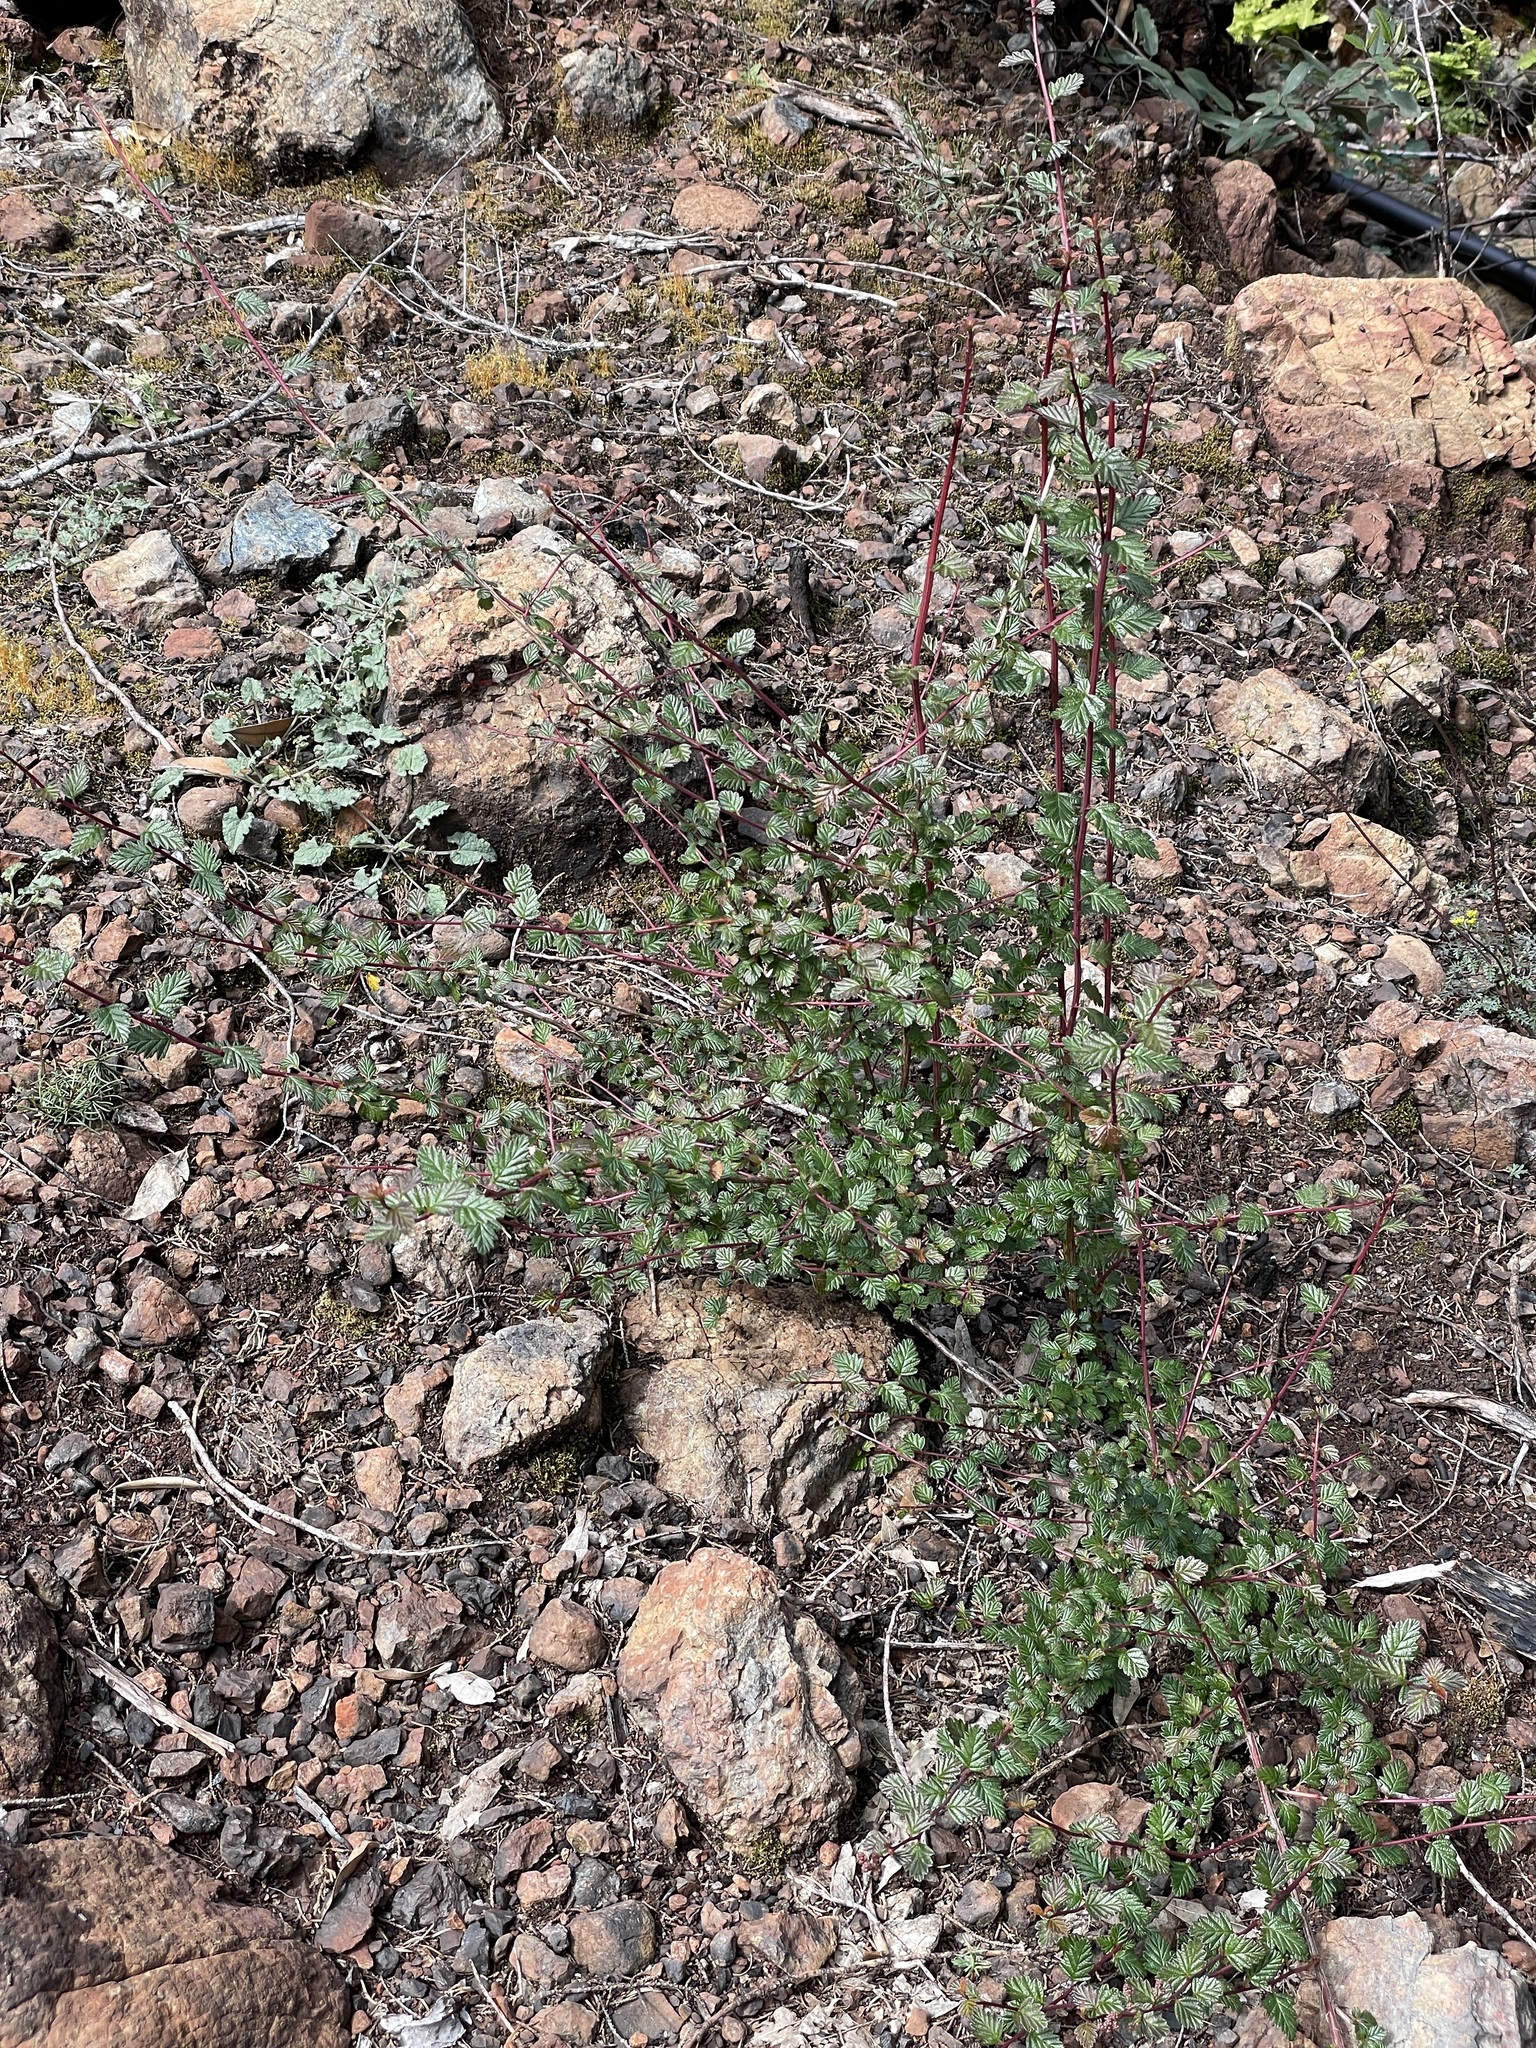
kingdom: Plantae
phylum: Tracheophyta
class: Magnoliopsida
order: Rosales
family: Rosaceae
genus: Holodiscus
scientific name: Holodiscus discolor
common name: Oceanspray
